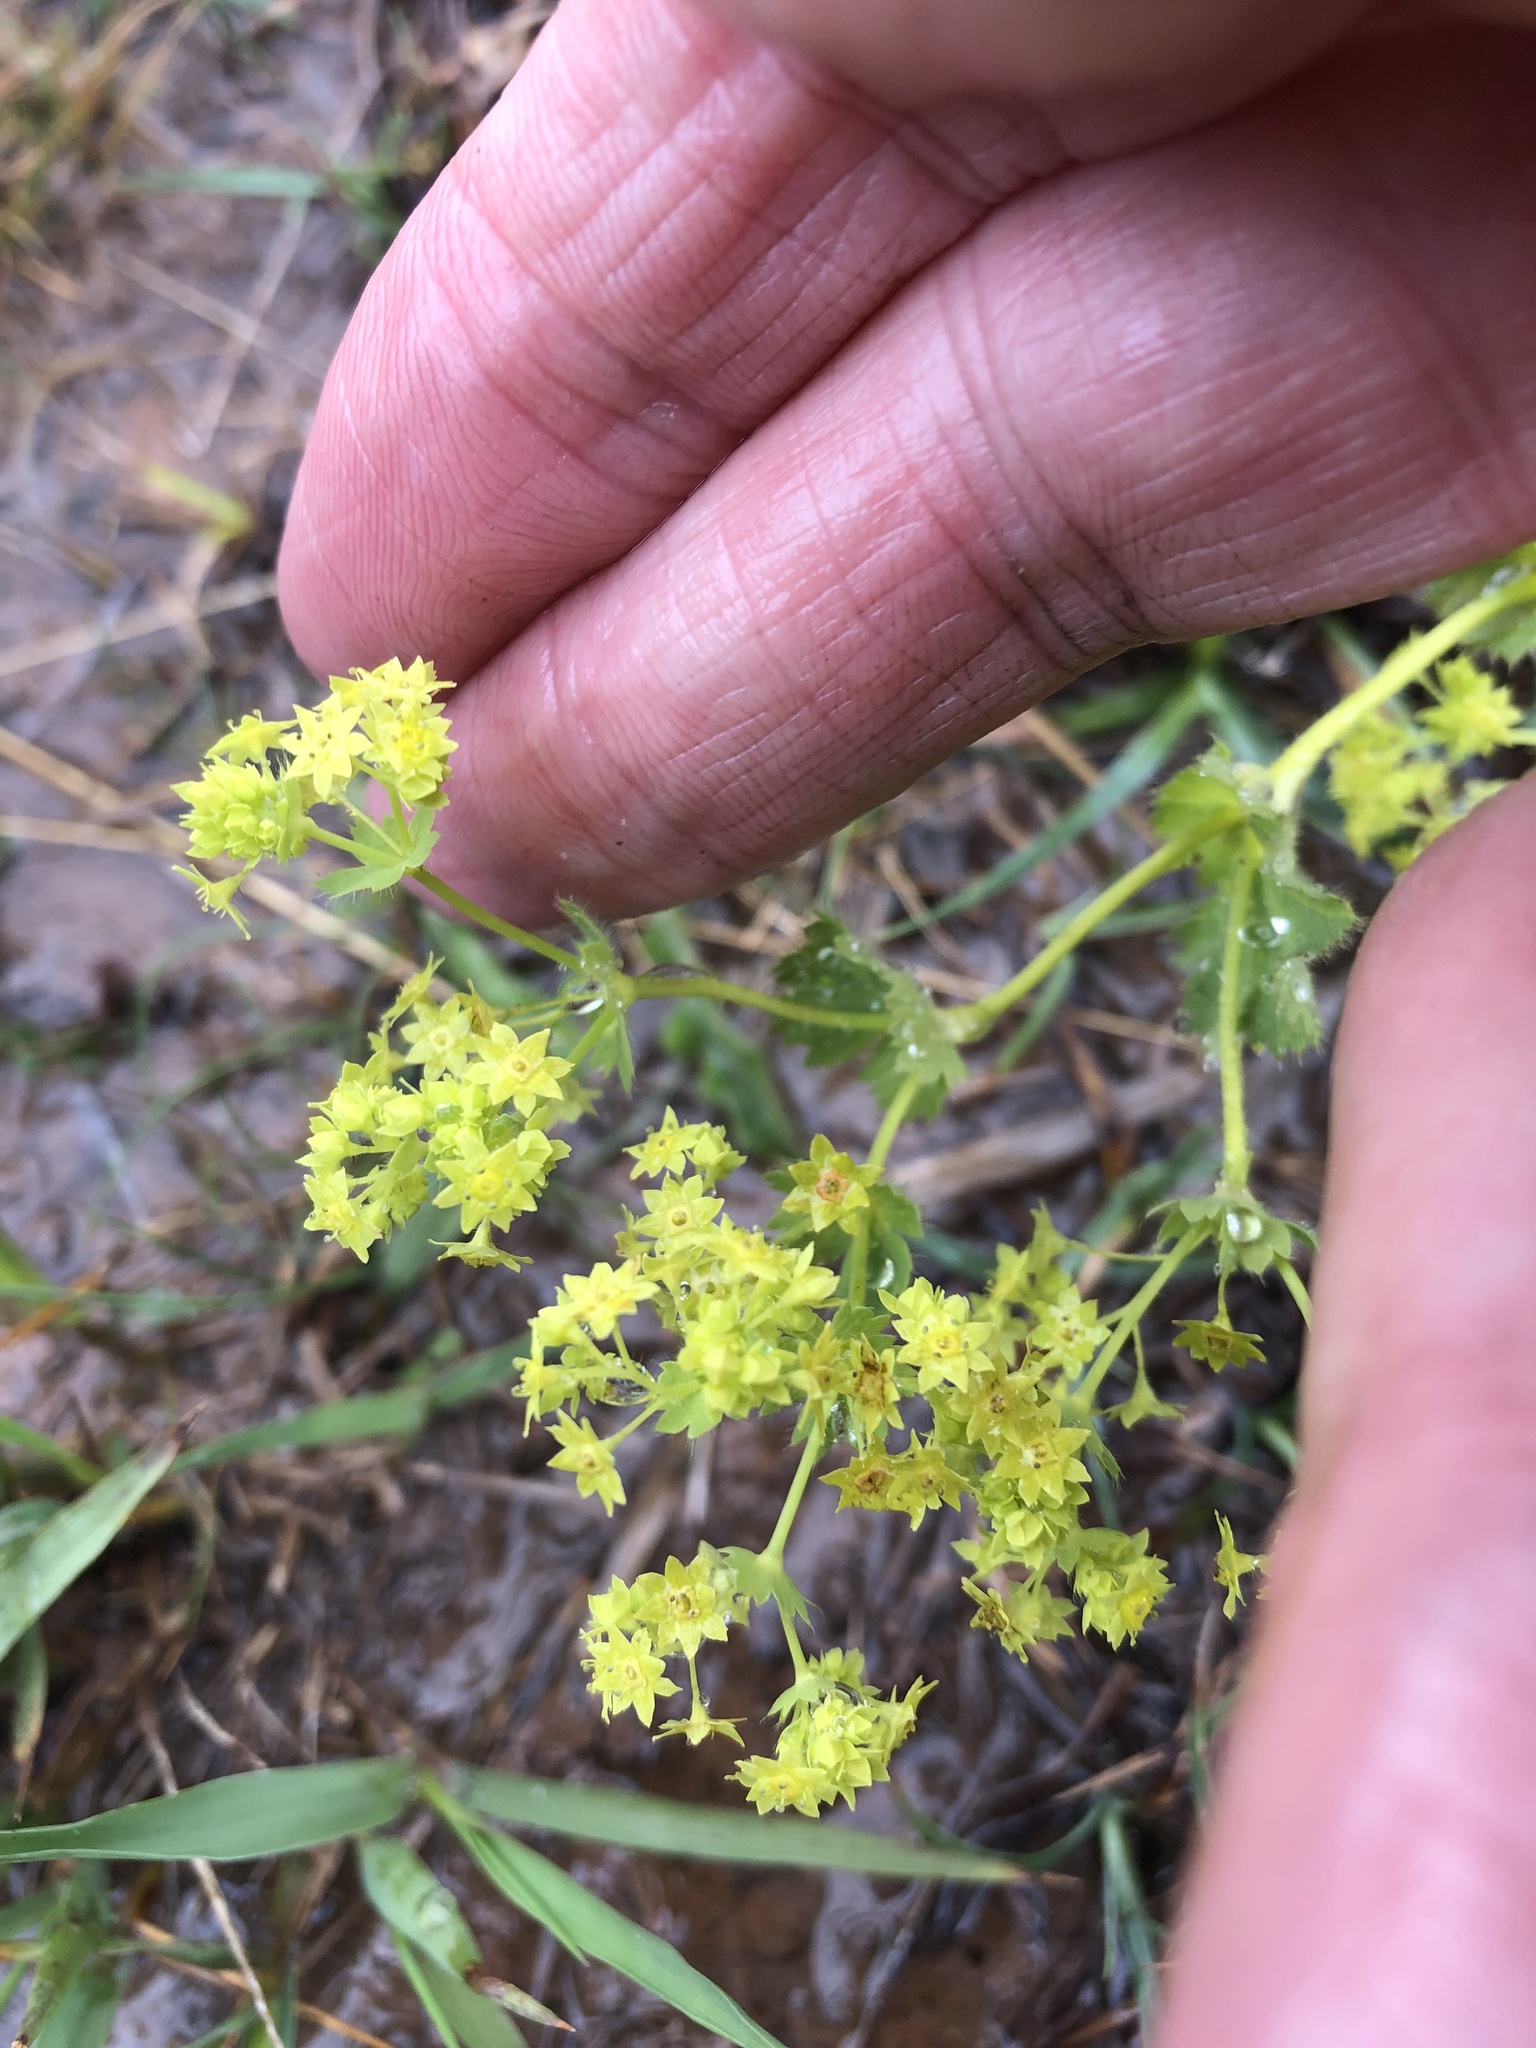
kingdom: Plantae
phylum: Tracheophyta
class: Magnoliopsida
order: Rosales
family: Rosaceae
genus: Alchemilla
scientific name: Alchemilla mollis
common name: Lady's-mantle
